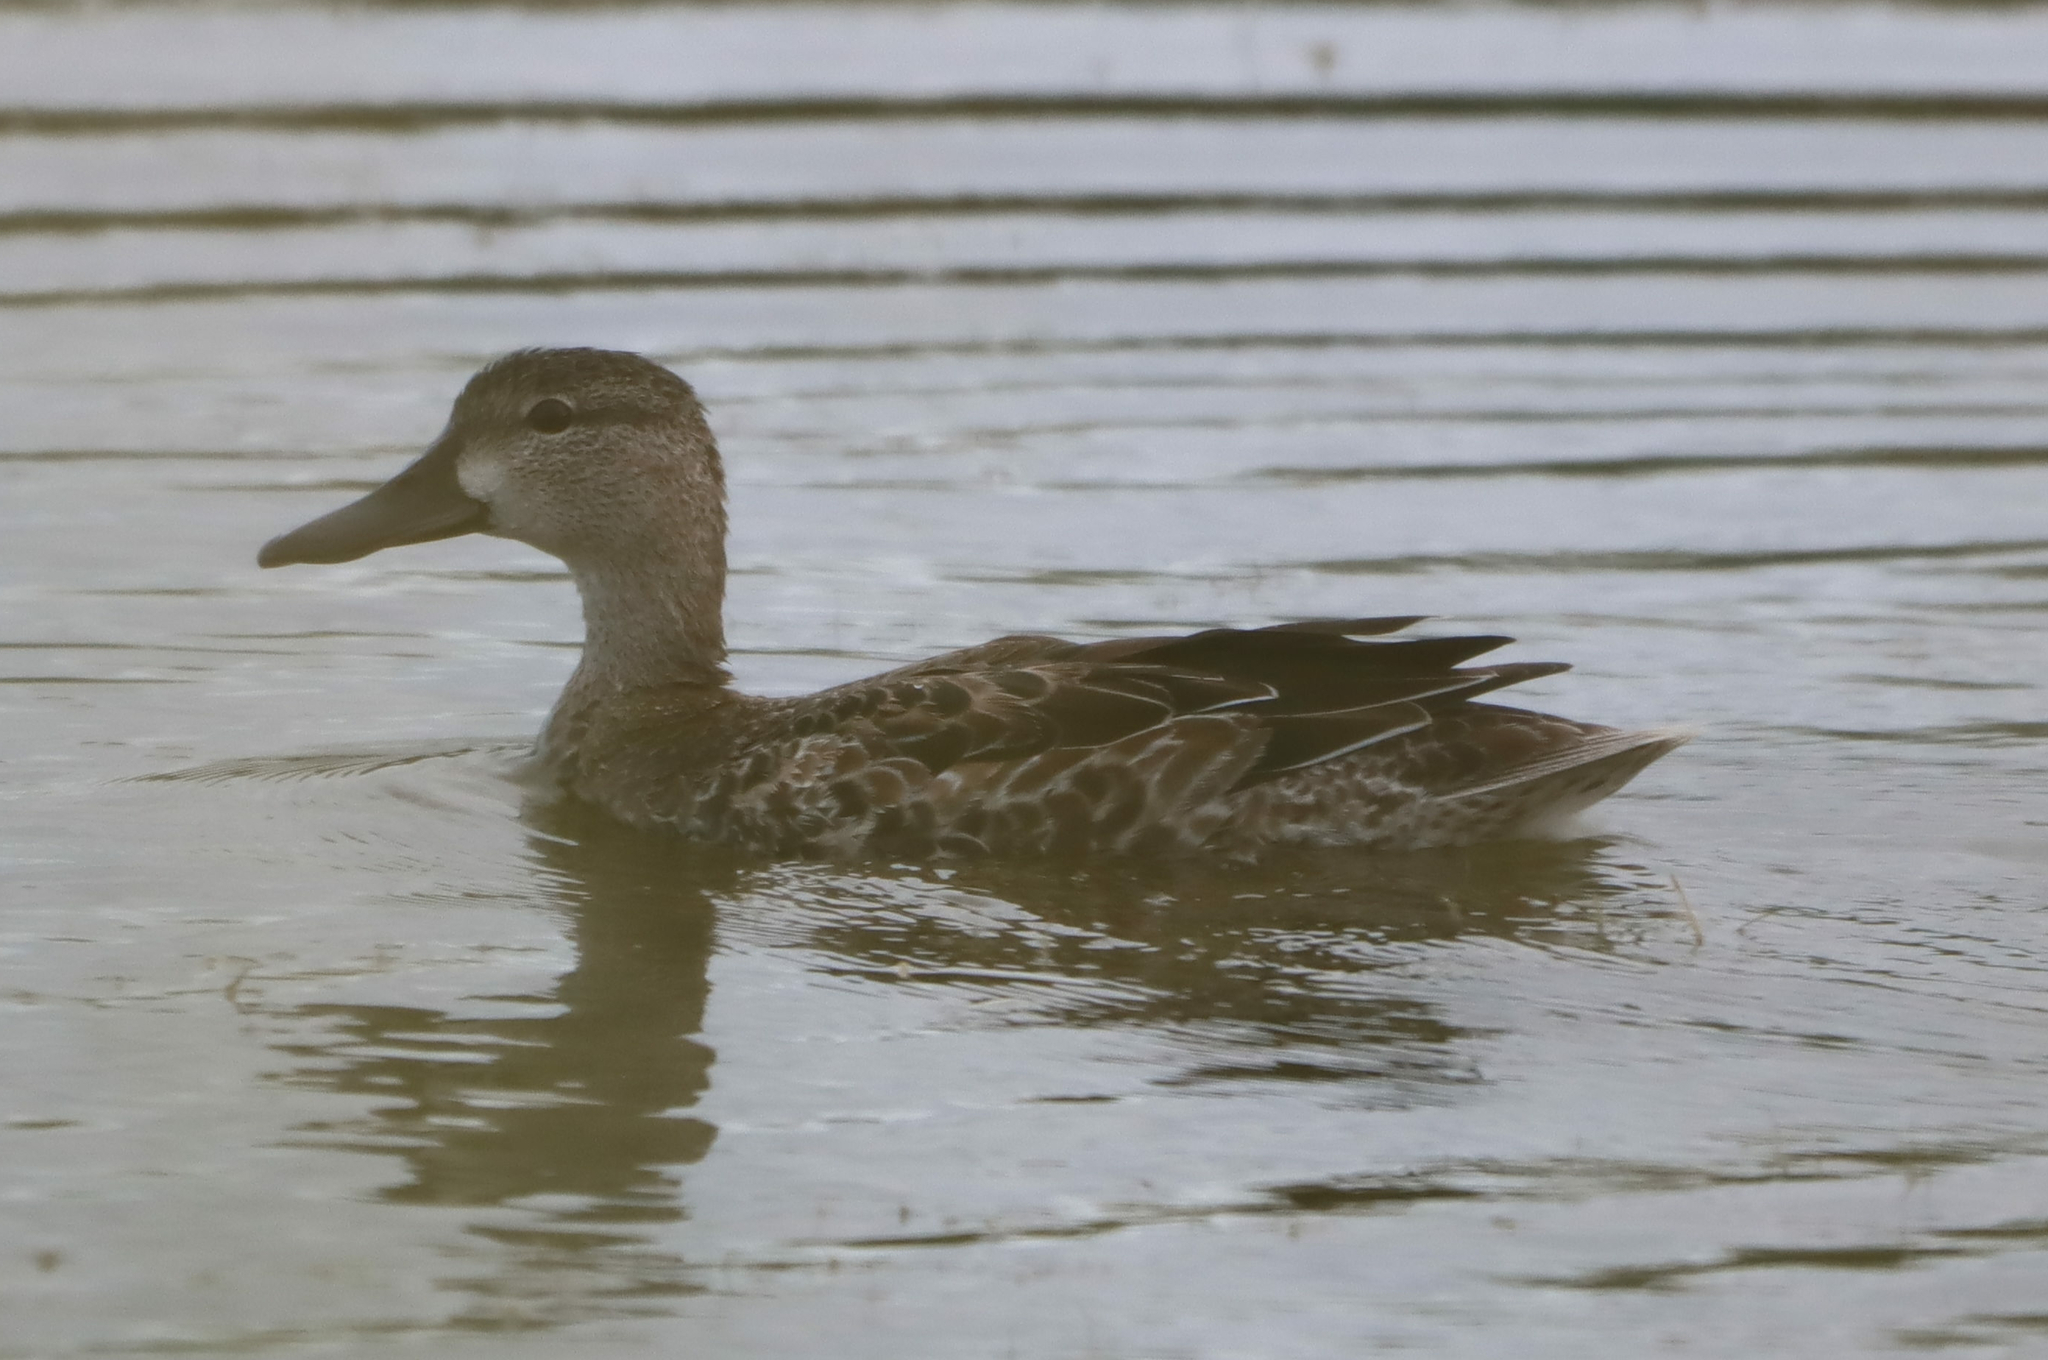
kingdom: Animalia
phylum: Chordata
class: Aves
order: Anseriformes
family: Anatidae
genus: Spatula
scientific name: Spatula discors
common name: Blue-winged teal
